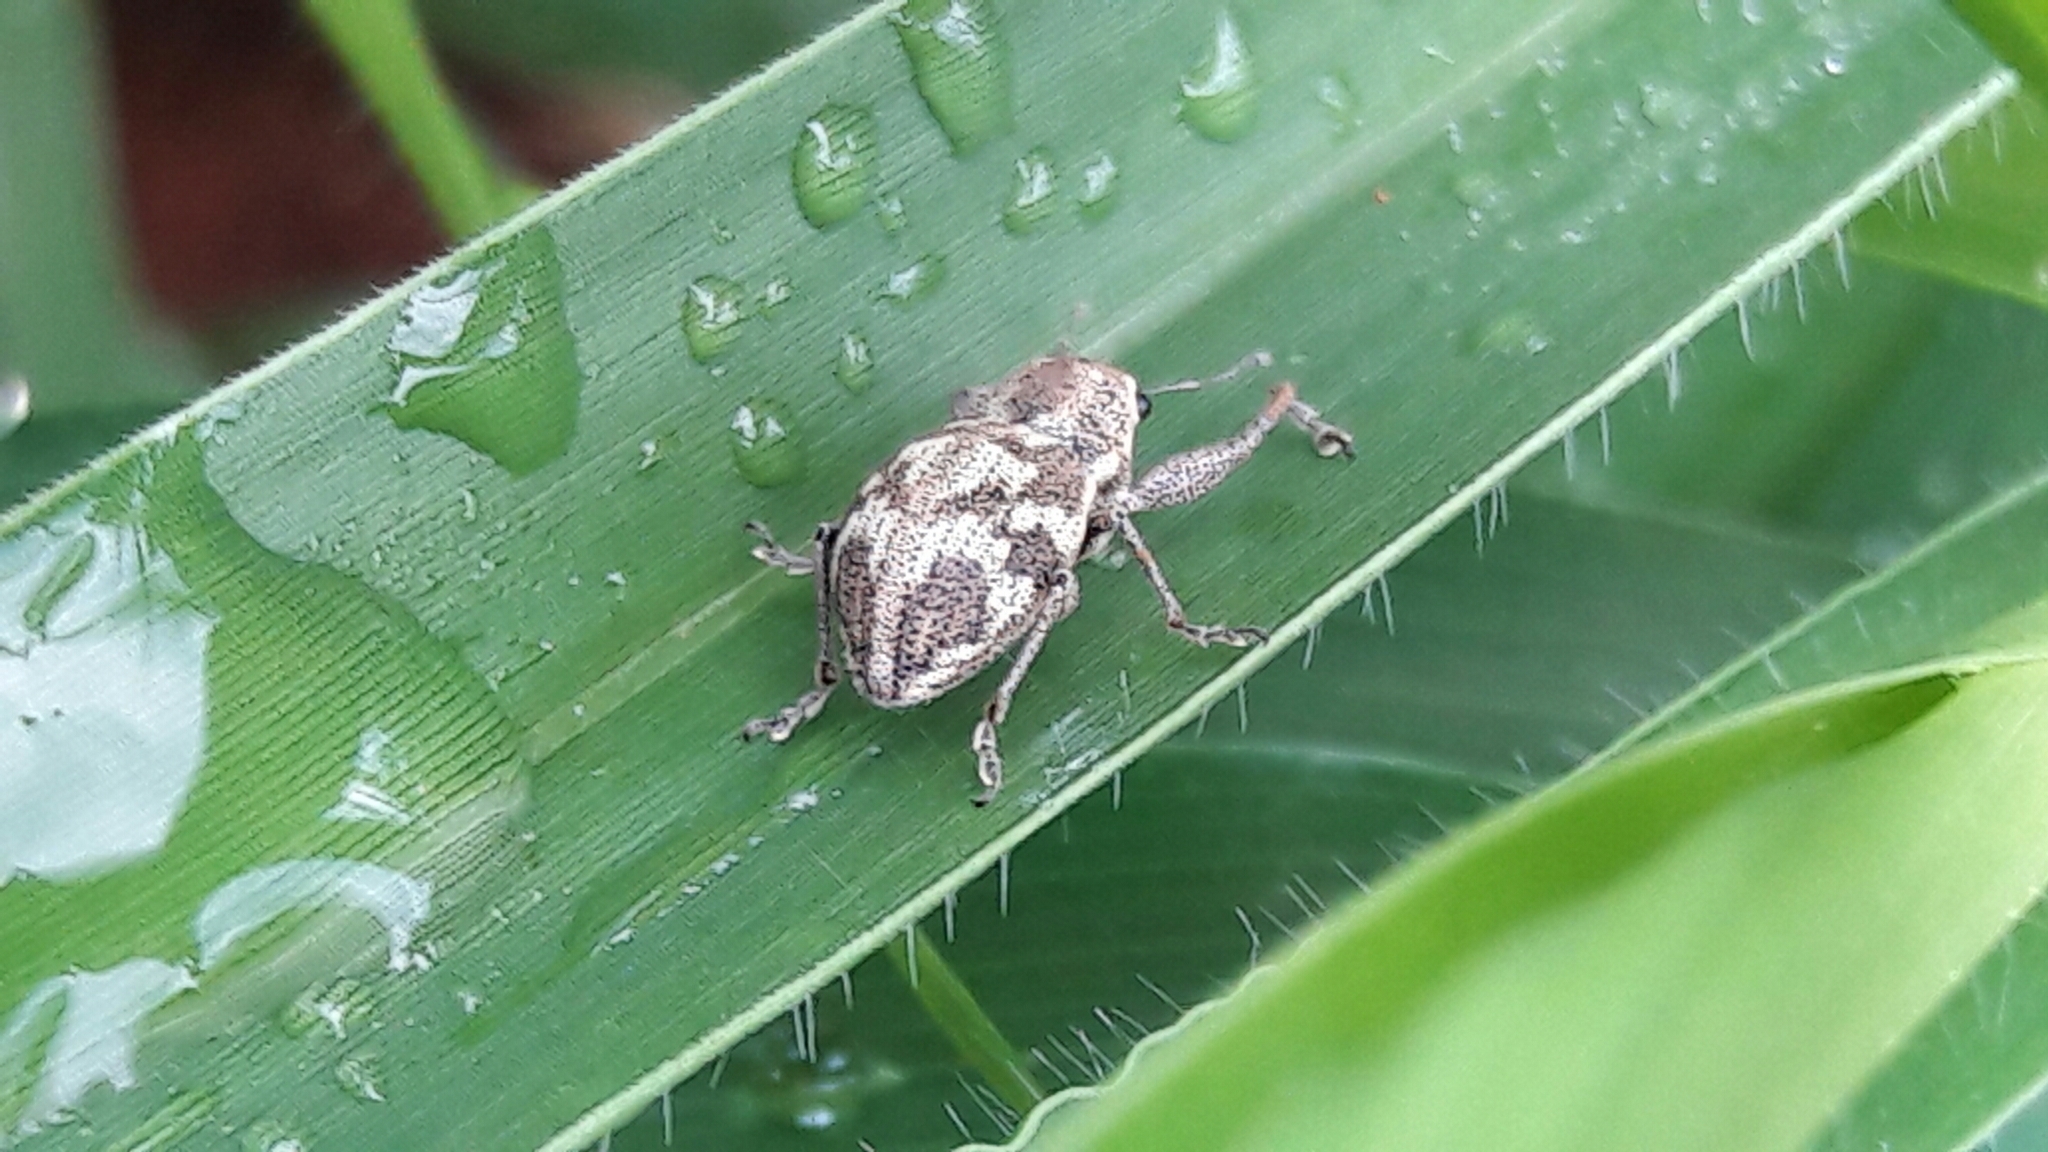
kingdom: Animalia
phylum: Arthropoda
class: Insecta
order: Coleoptera
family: Curculionidae
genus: Parapantomorus
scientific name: Parapantomorus fluctuosus
